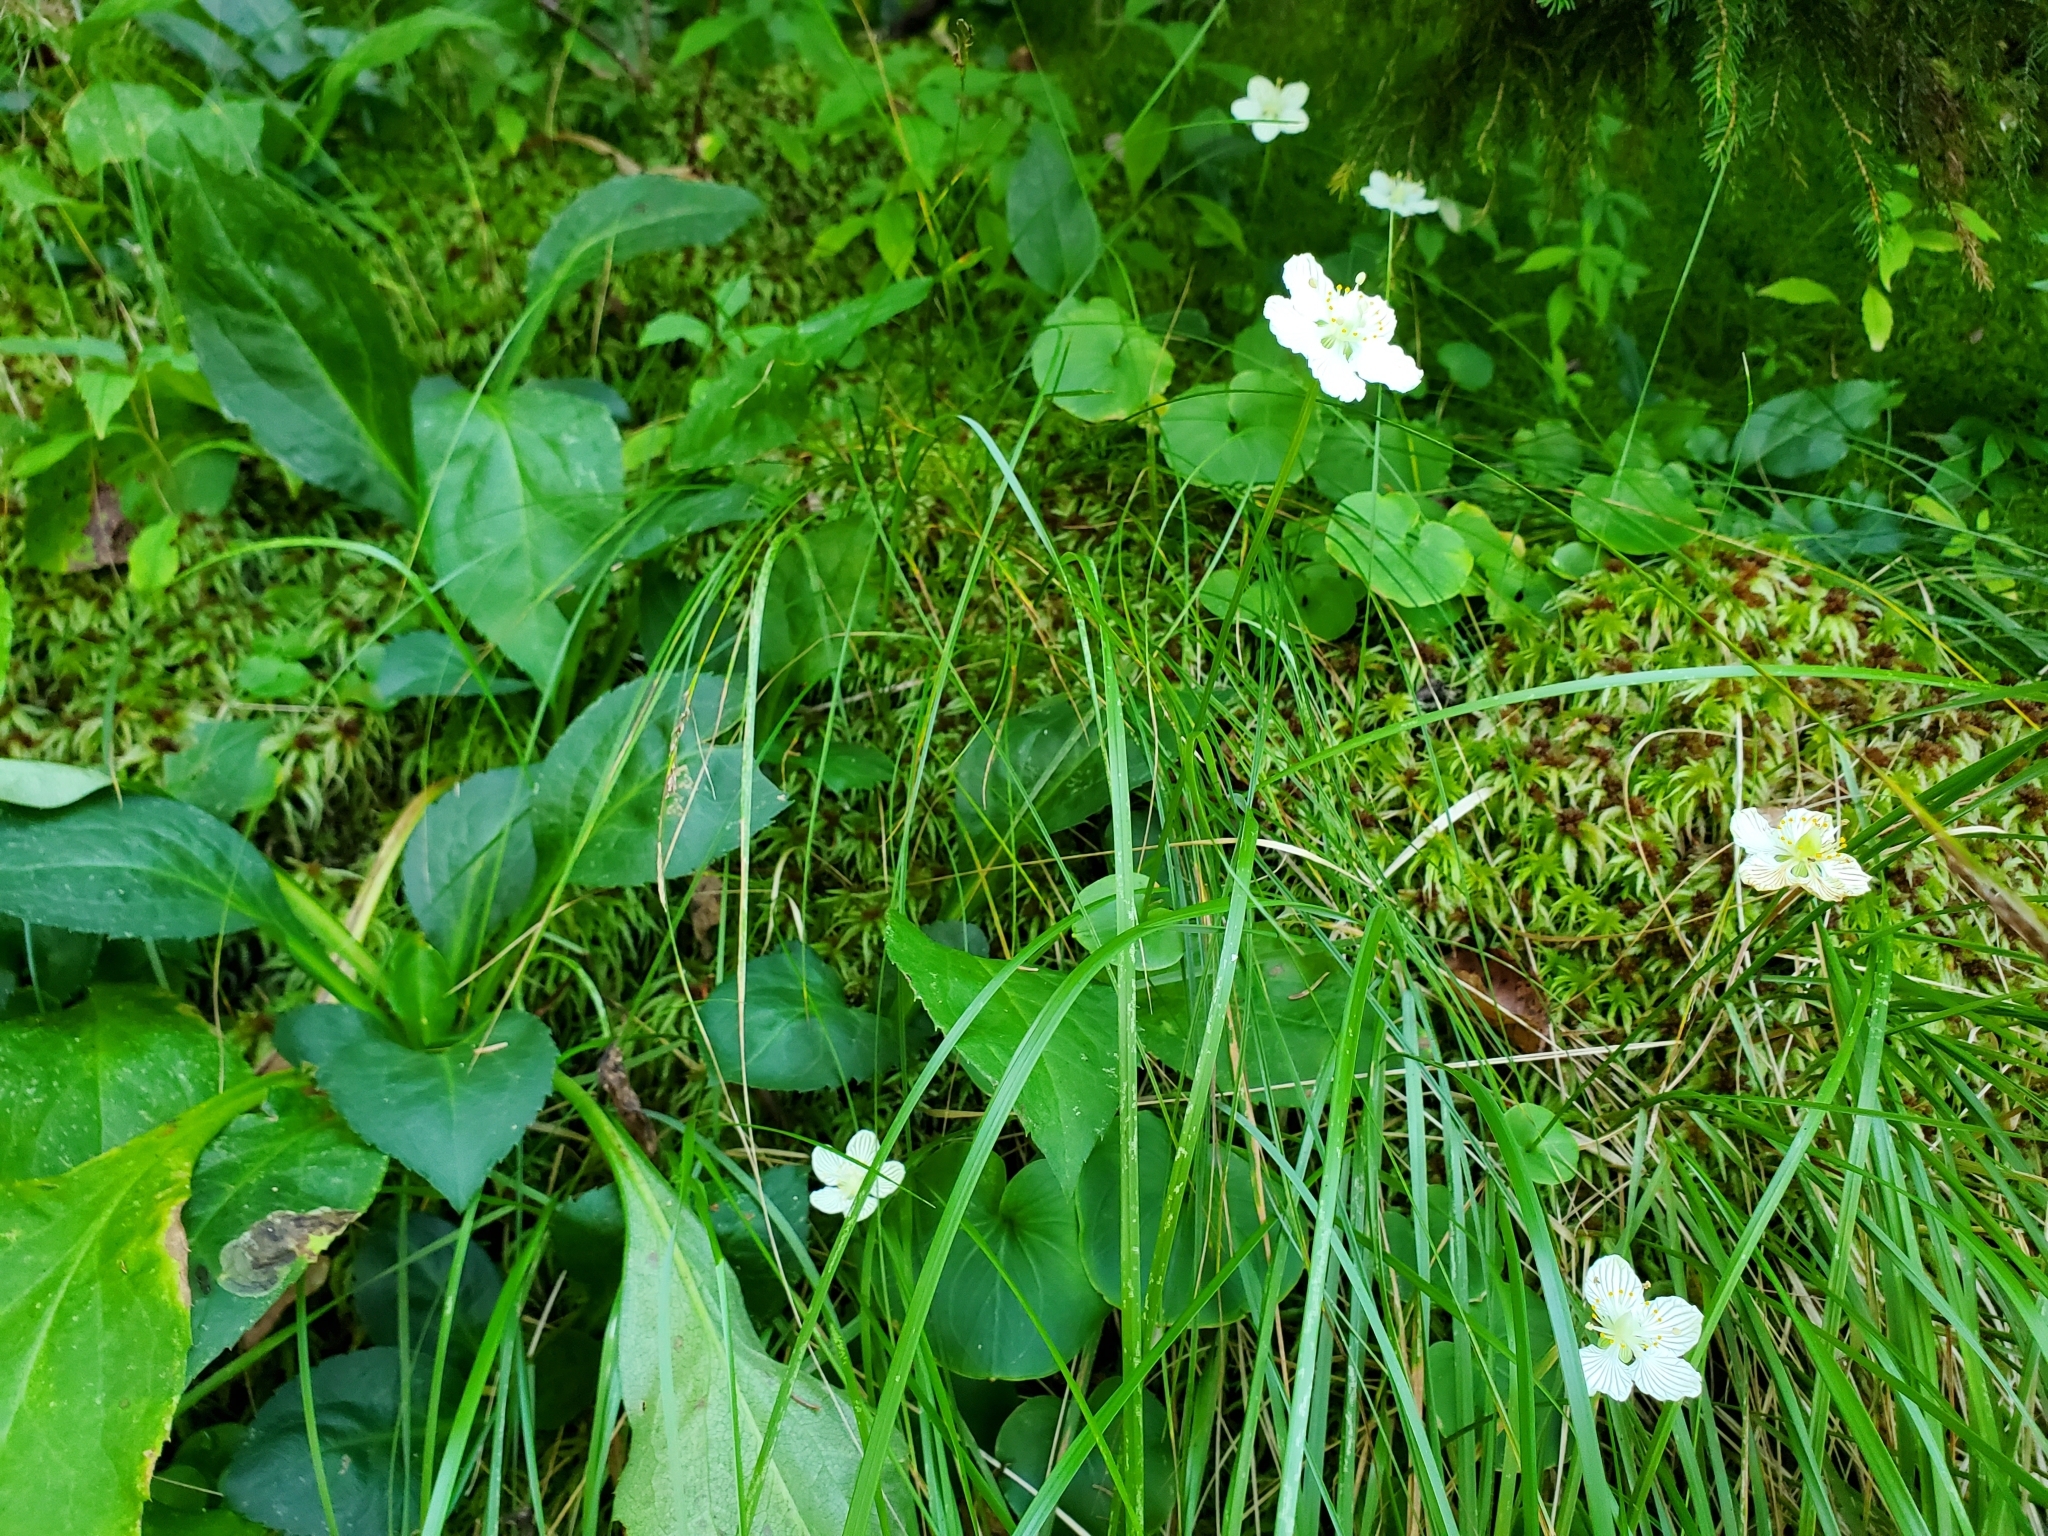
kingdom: Plantae
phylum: Tracheophyta
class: Magnoliopsida
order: Celastrales
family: Parnassiaceae
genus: Parnassia
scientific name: Parnassia asarifolia
